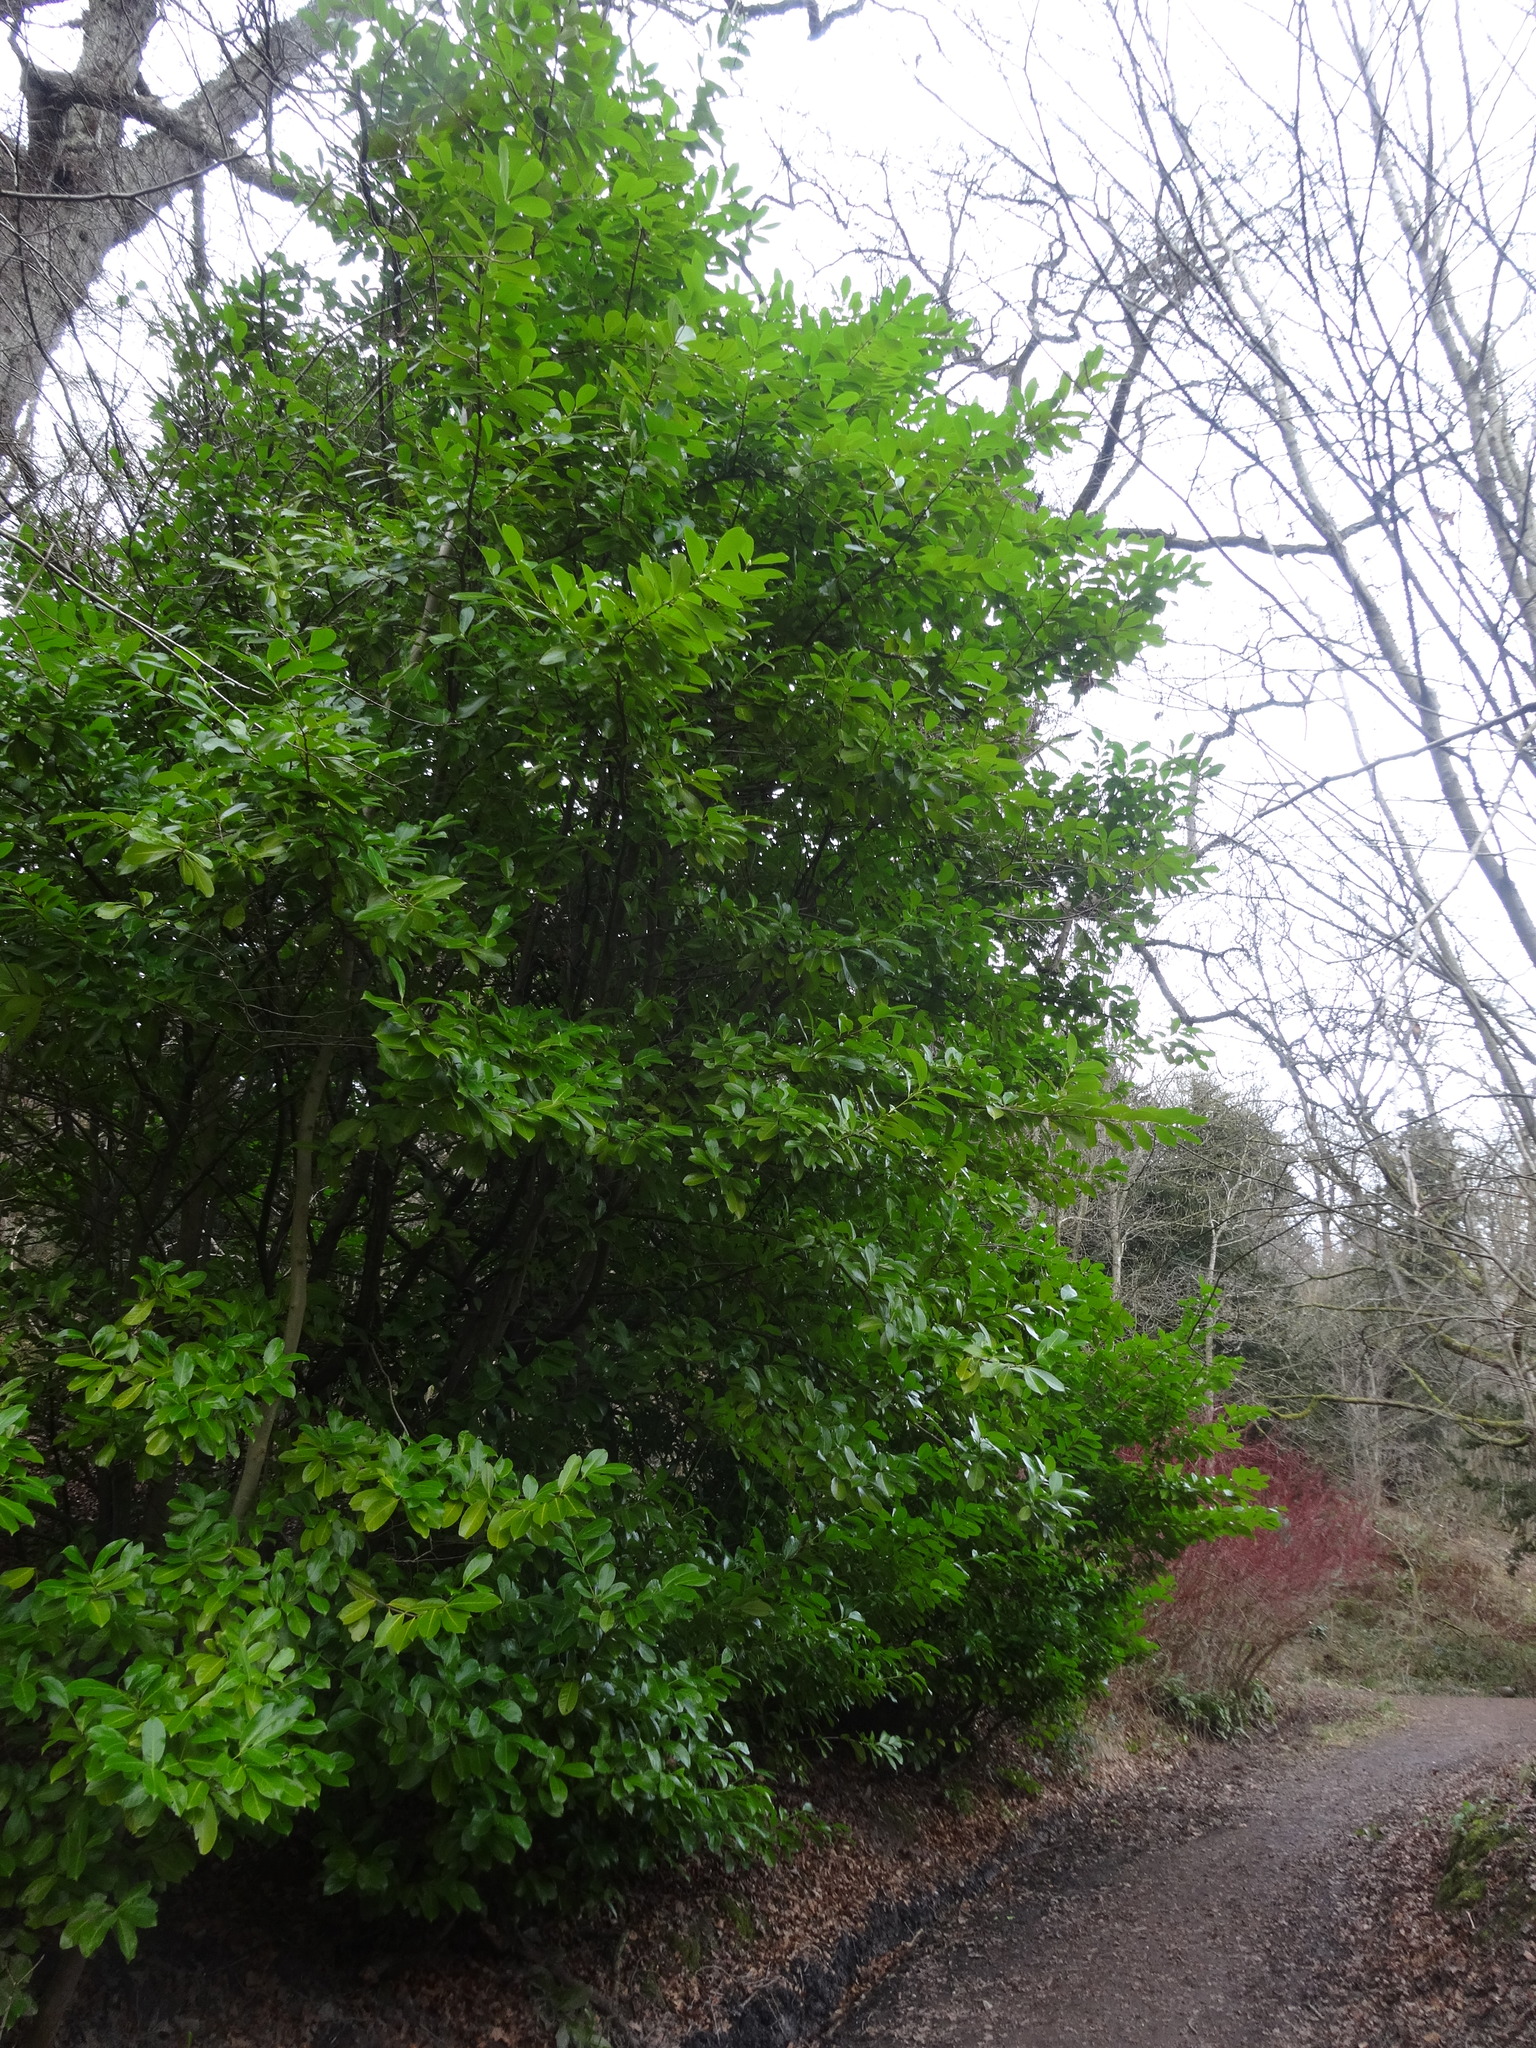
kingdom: Plantae
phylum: Tracheophyta
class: Magnoliopsida
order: Rosales
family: Rosaceae
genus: Prunus
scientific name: Prunus laurocerasus
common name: Cherry laurel
